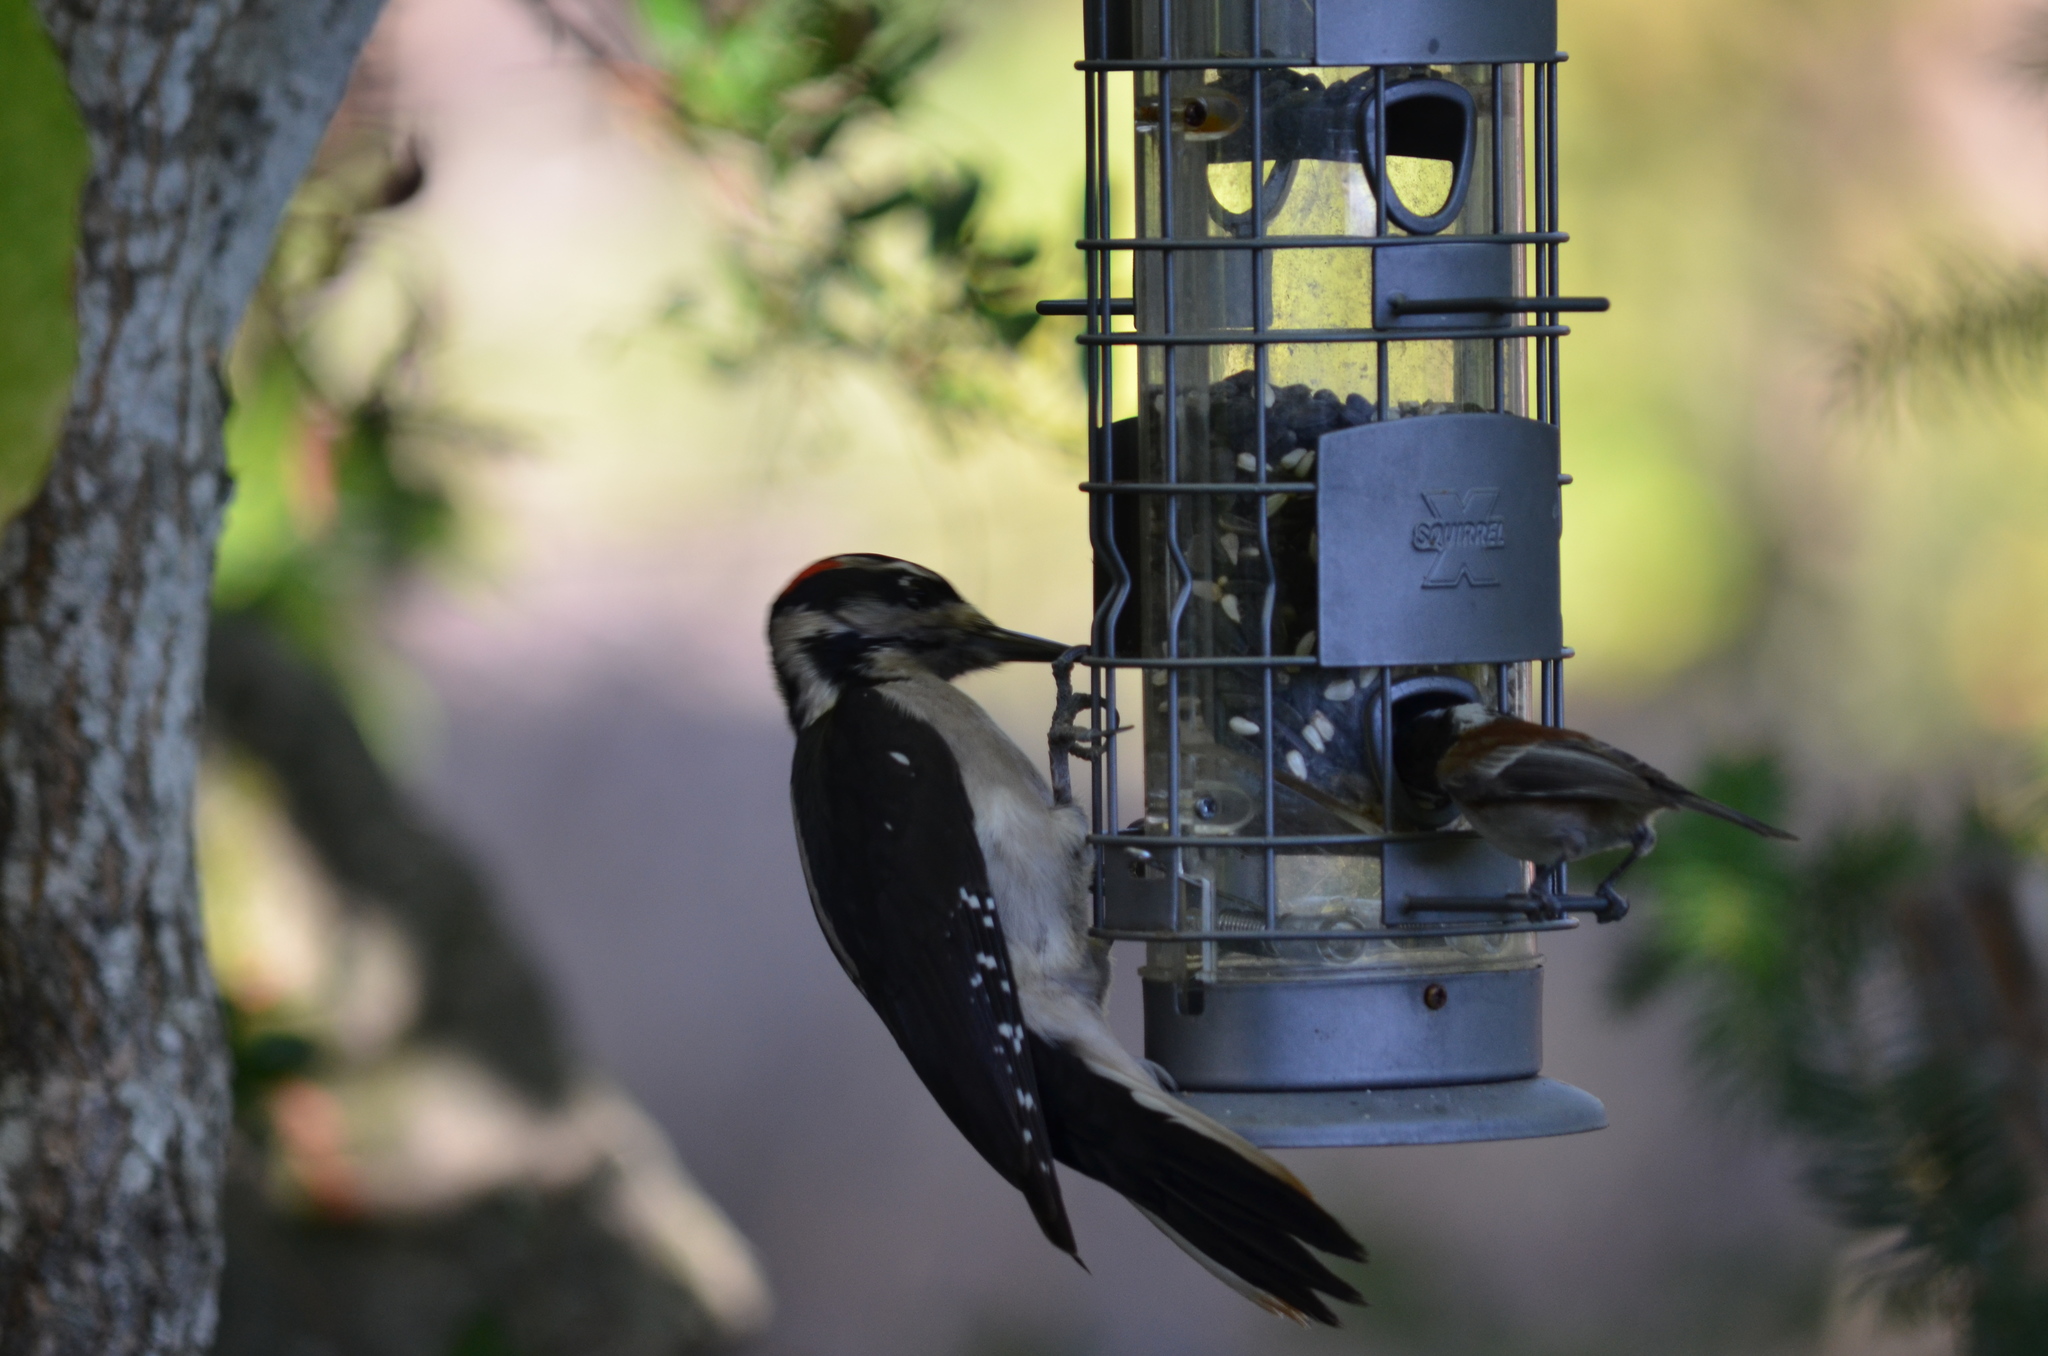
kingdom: Animalia
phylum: Chordata
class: Aves
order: Passeriformes
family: Paridae
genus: Poecile
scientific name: Poecile rufescens
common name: Chestnut-backed chickadee
